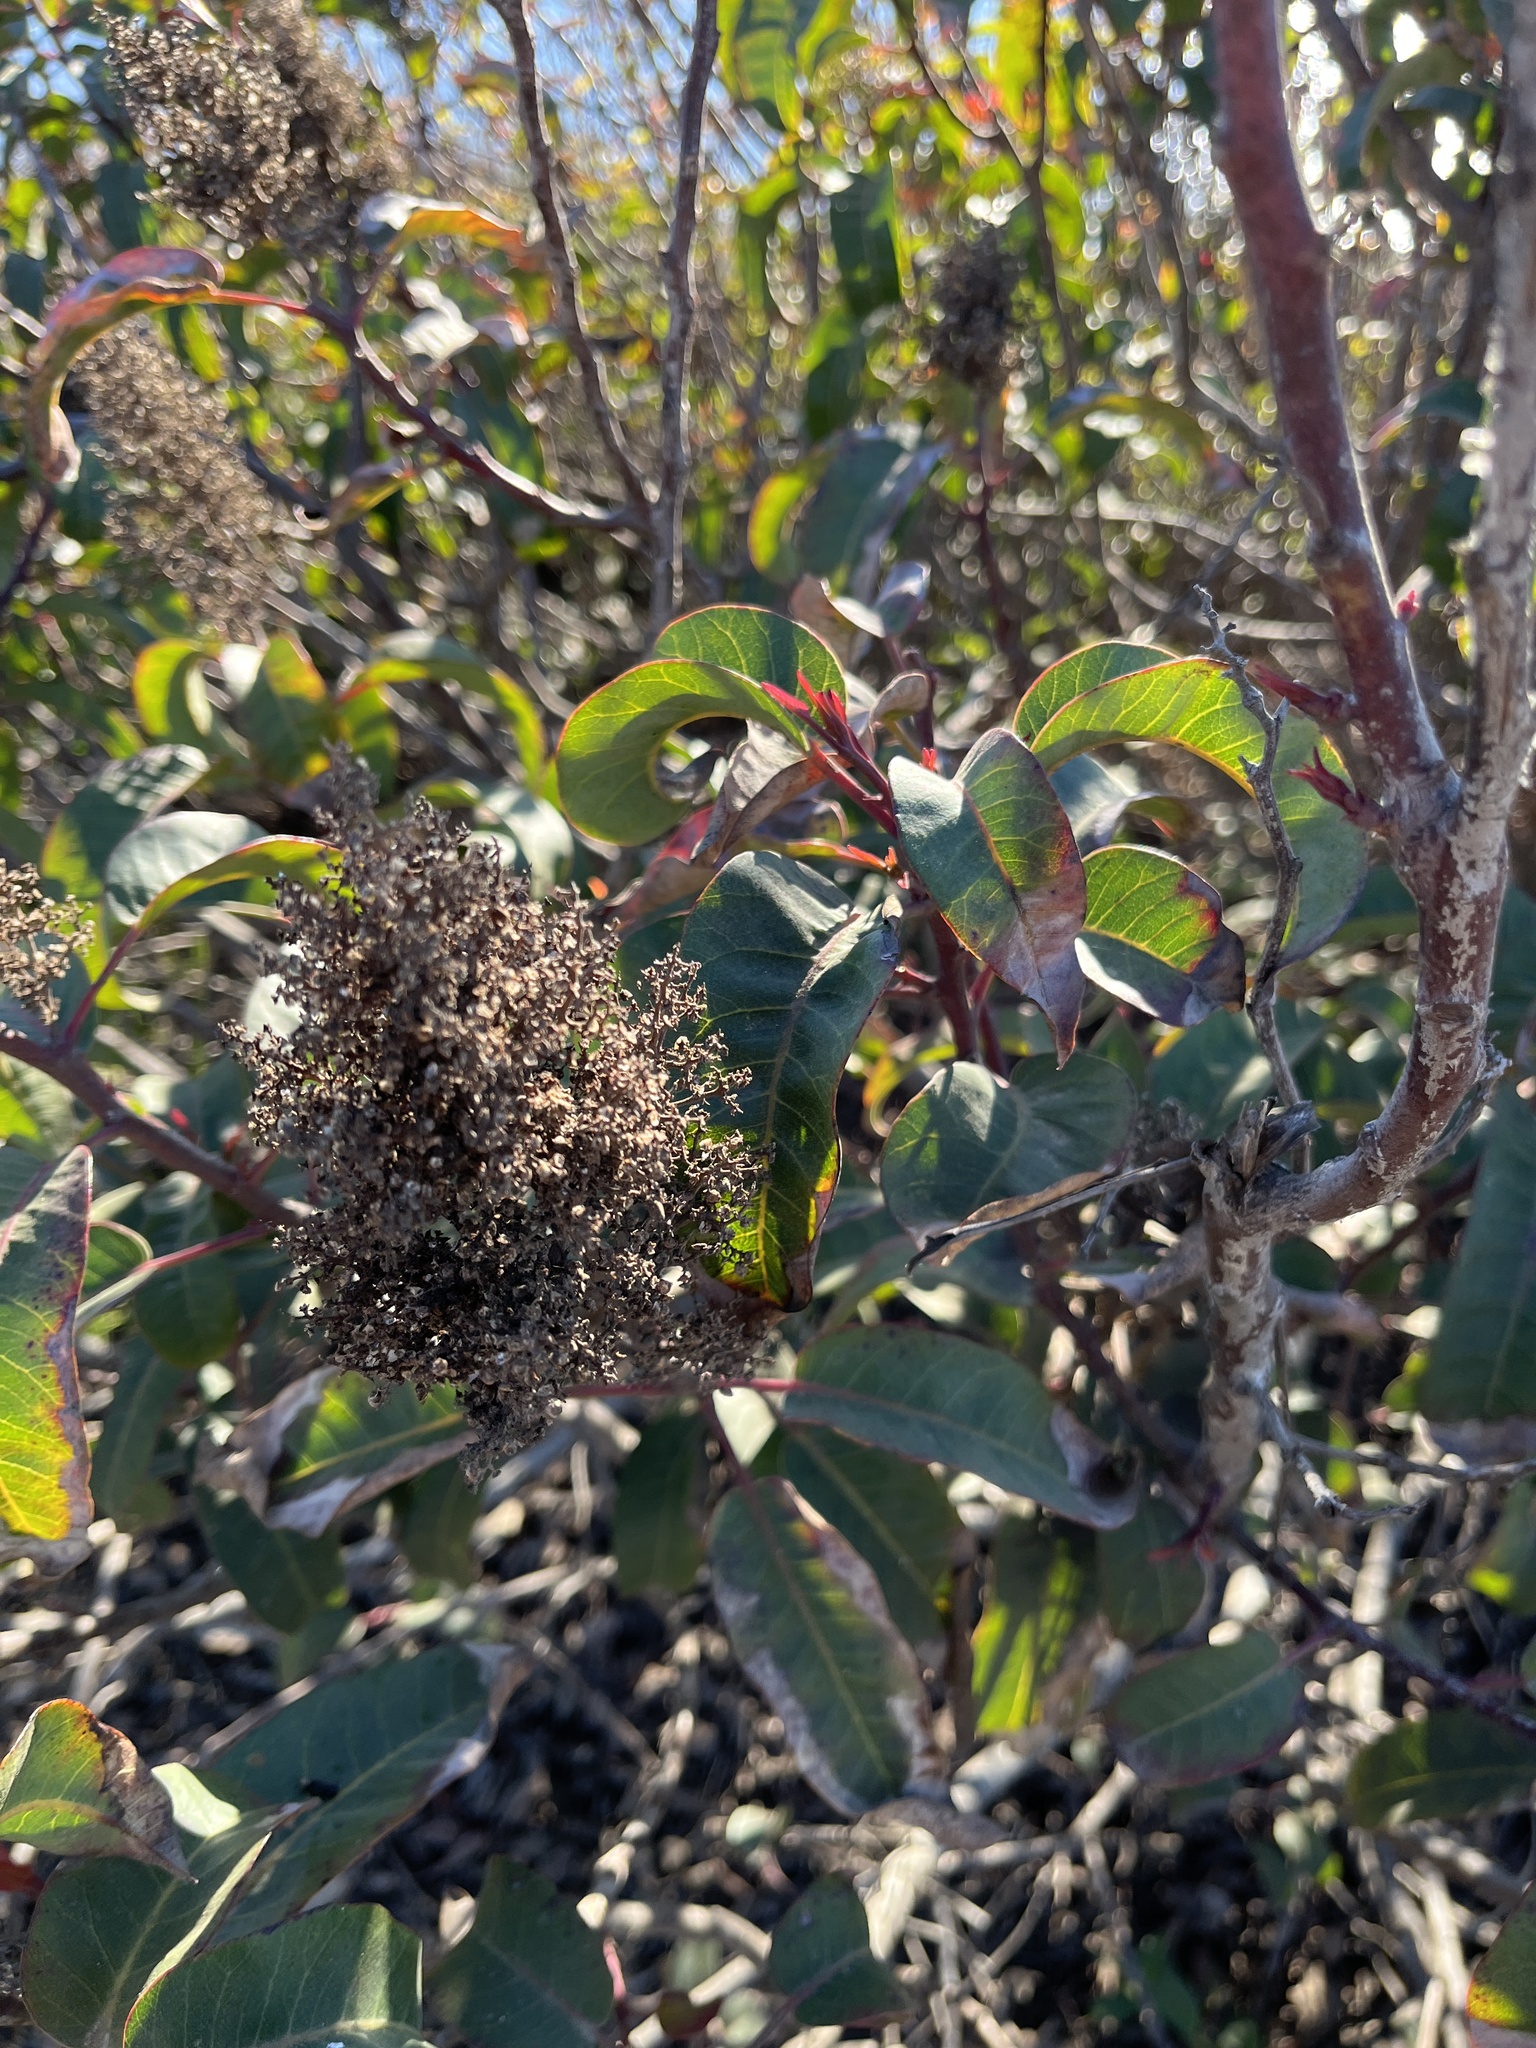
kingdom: Plantae
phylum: Tracheophyta
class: Magnoliopsida
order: Sapindales
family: Anacardiaceae
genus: Malosma
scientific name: Malosma laurina
